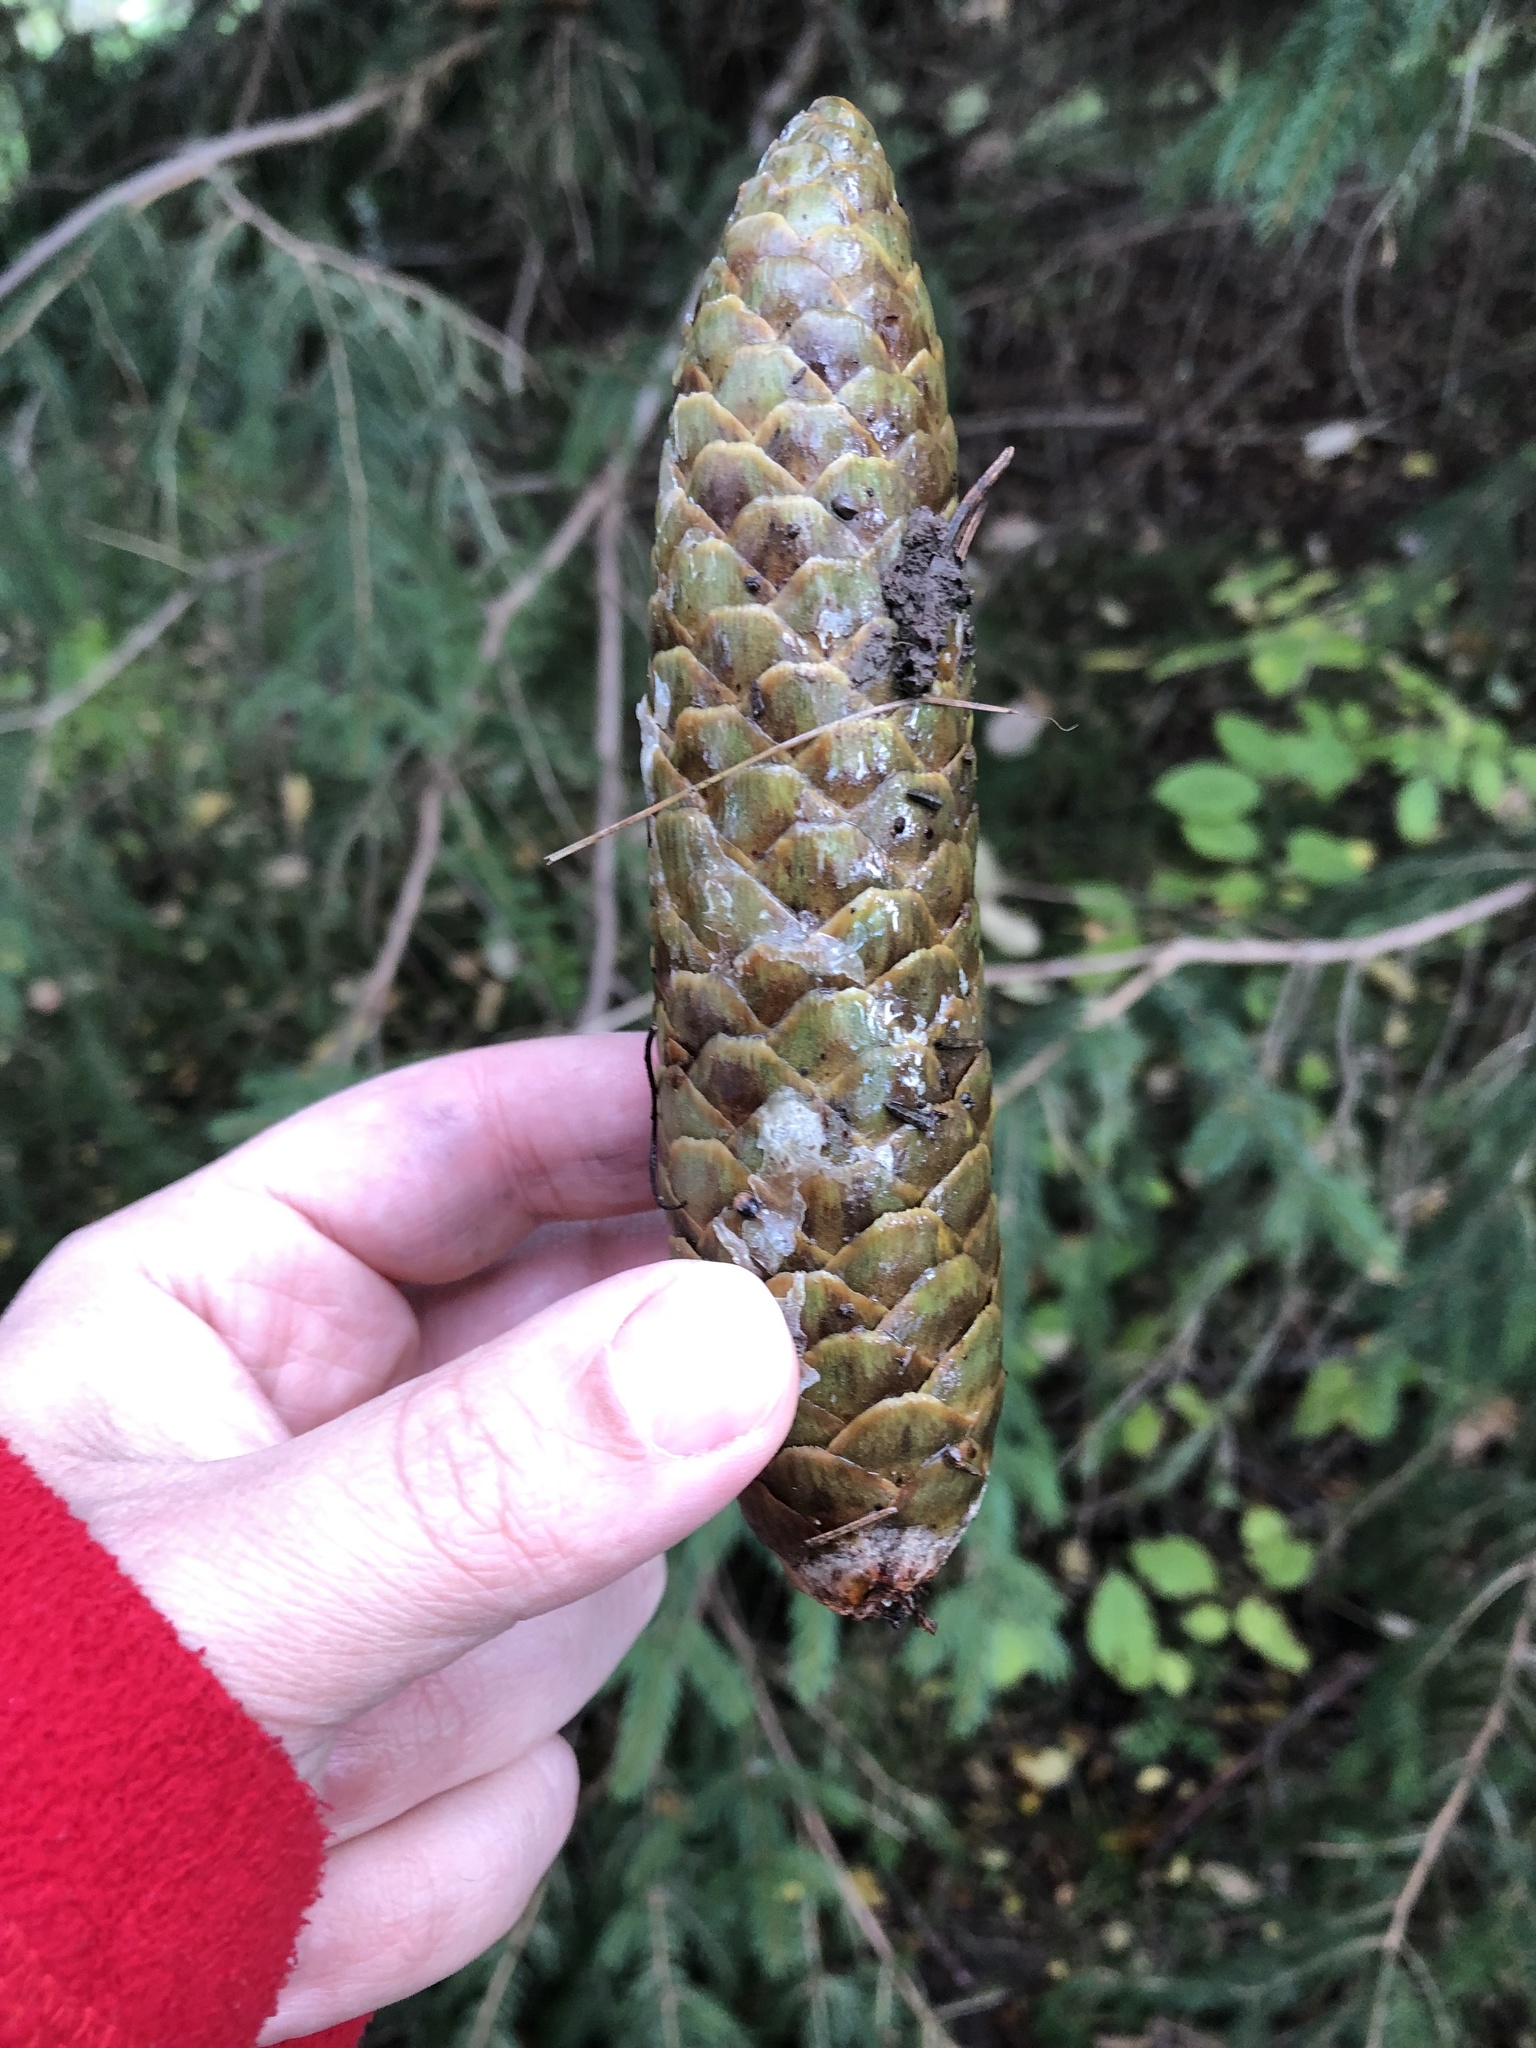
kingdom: Plantae
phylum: Tracheophyta
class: Pinopsida
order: Pinales
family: Pinaceae
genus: Picea
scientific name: Picea abies
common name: Norway spruce
